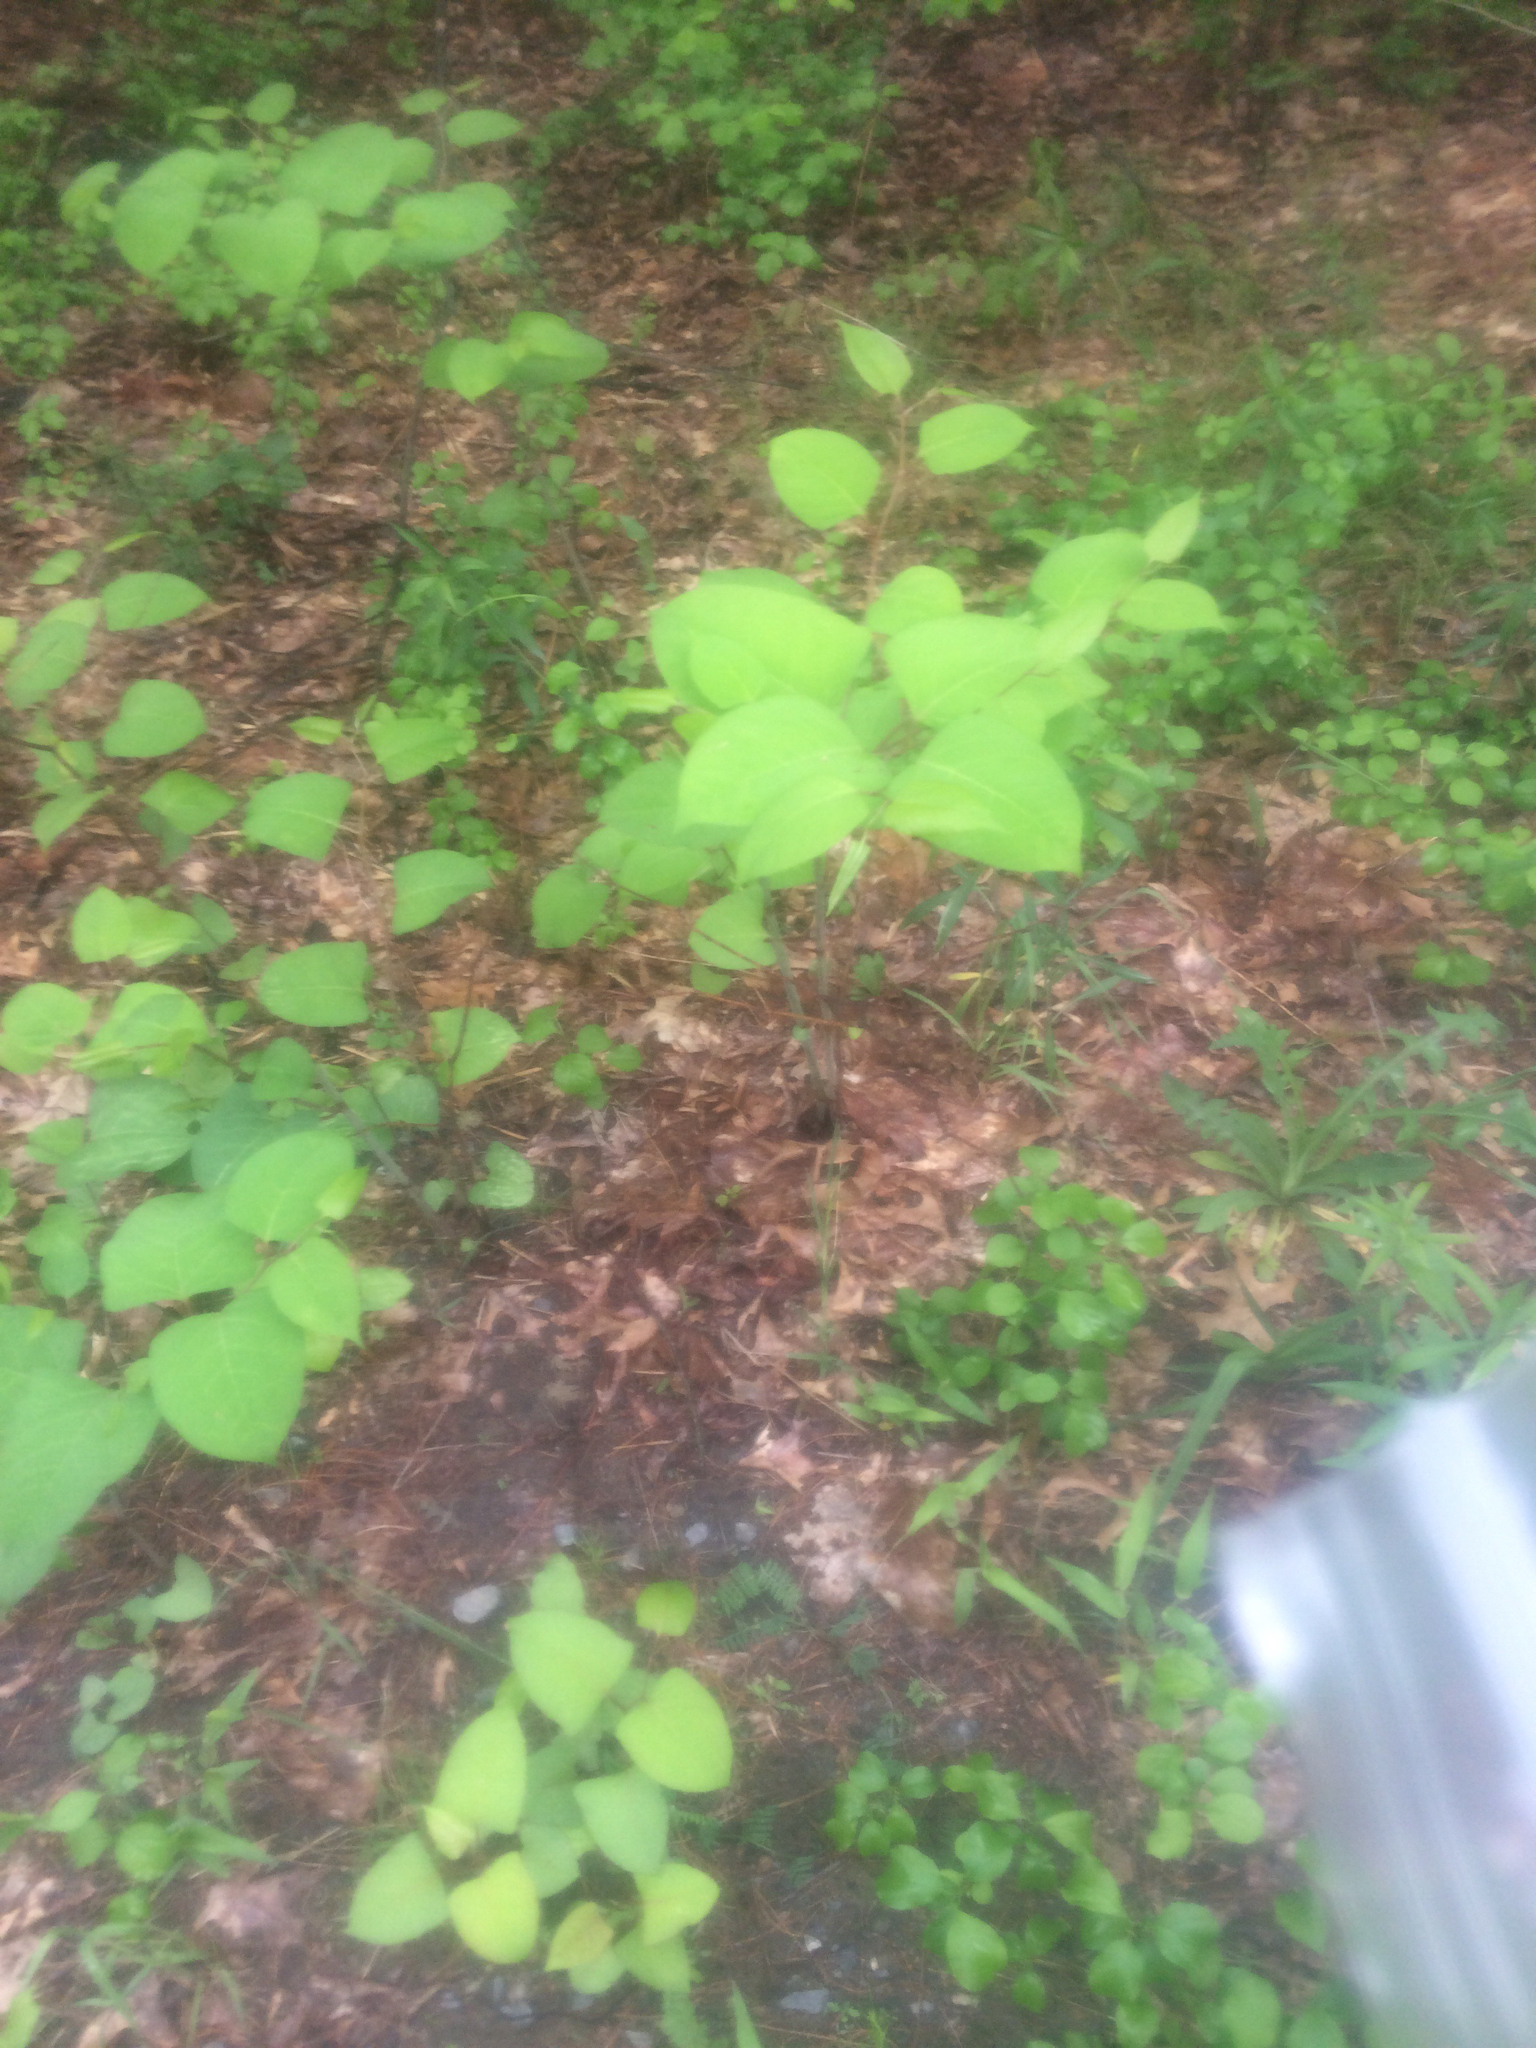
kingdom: Plantae
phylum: Tracheophyta
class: Magnoliopsida
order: Caryophyllales
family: Polygonaceae
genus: Reynoutria
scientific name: Reynoutria japonica
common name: Japanese knotweed
